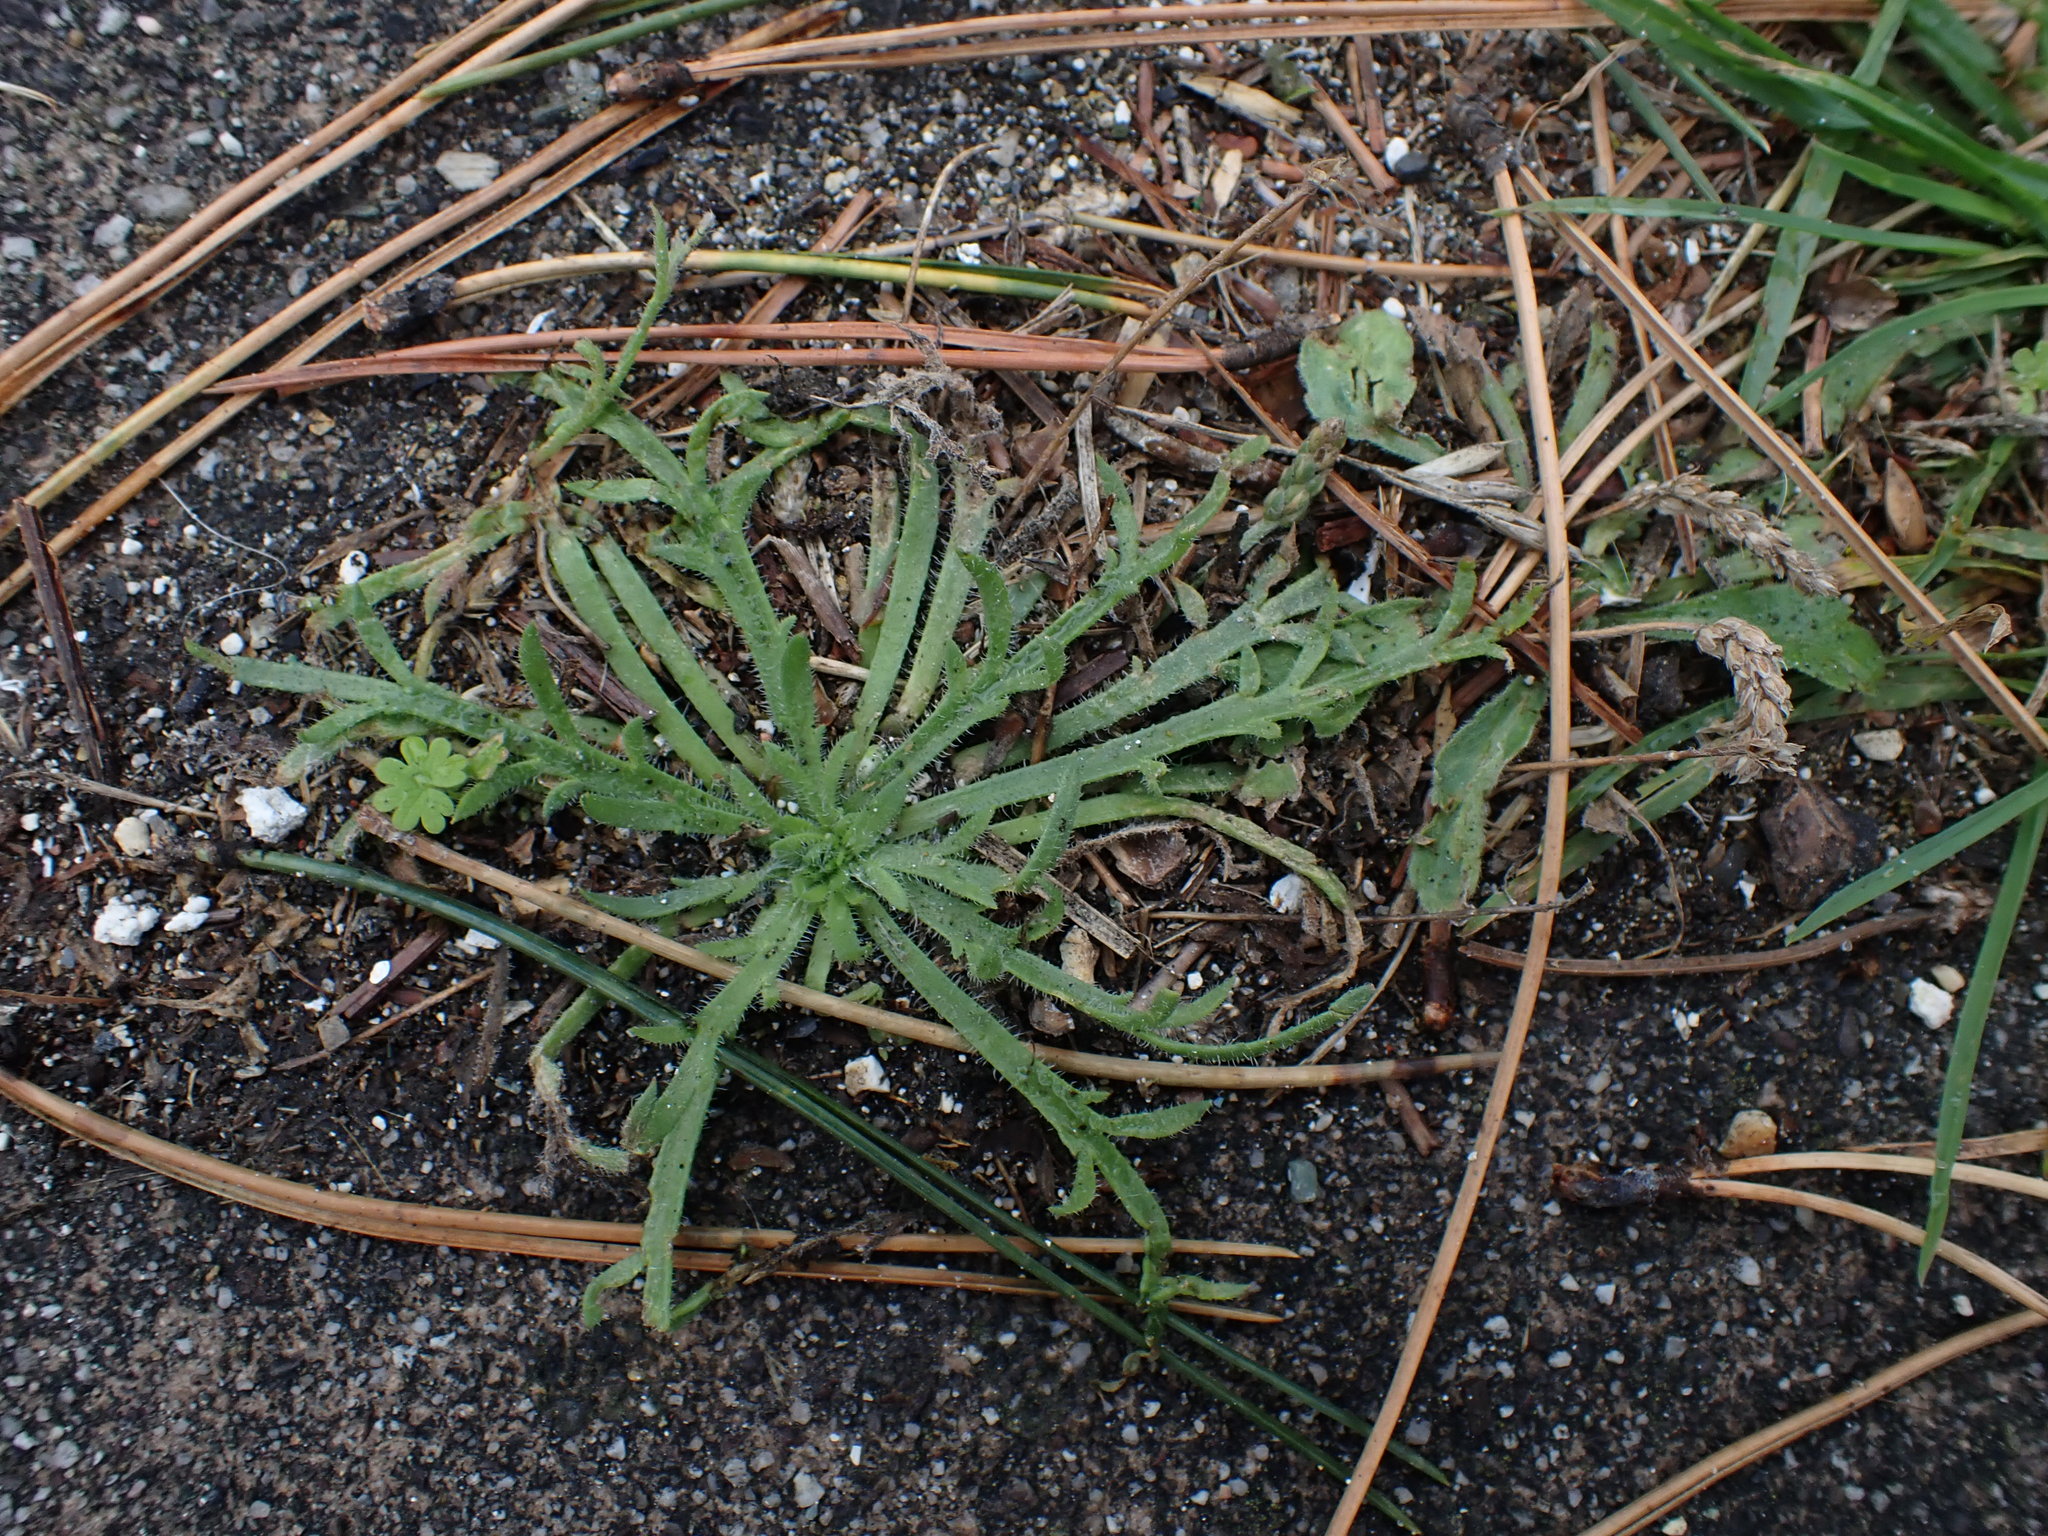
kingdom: Plantae
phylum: Tracheophyta
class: Magnoliopsida
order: Lamiales
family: Plantaginaceae
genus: Plantago
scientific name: Plantago coronopus
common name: Buck's-horn plantain
